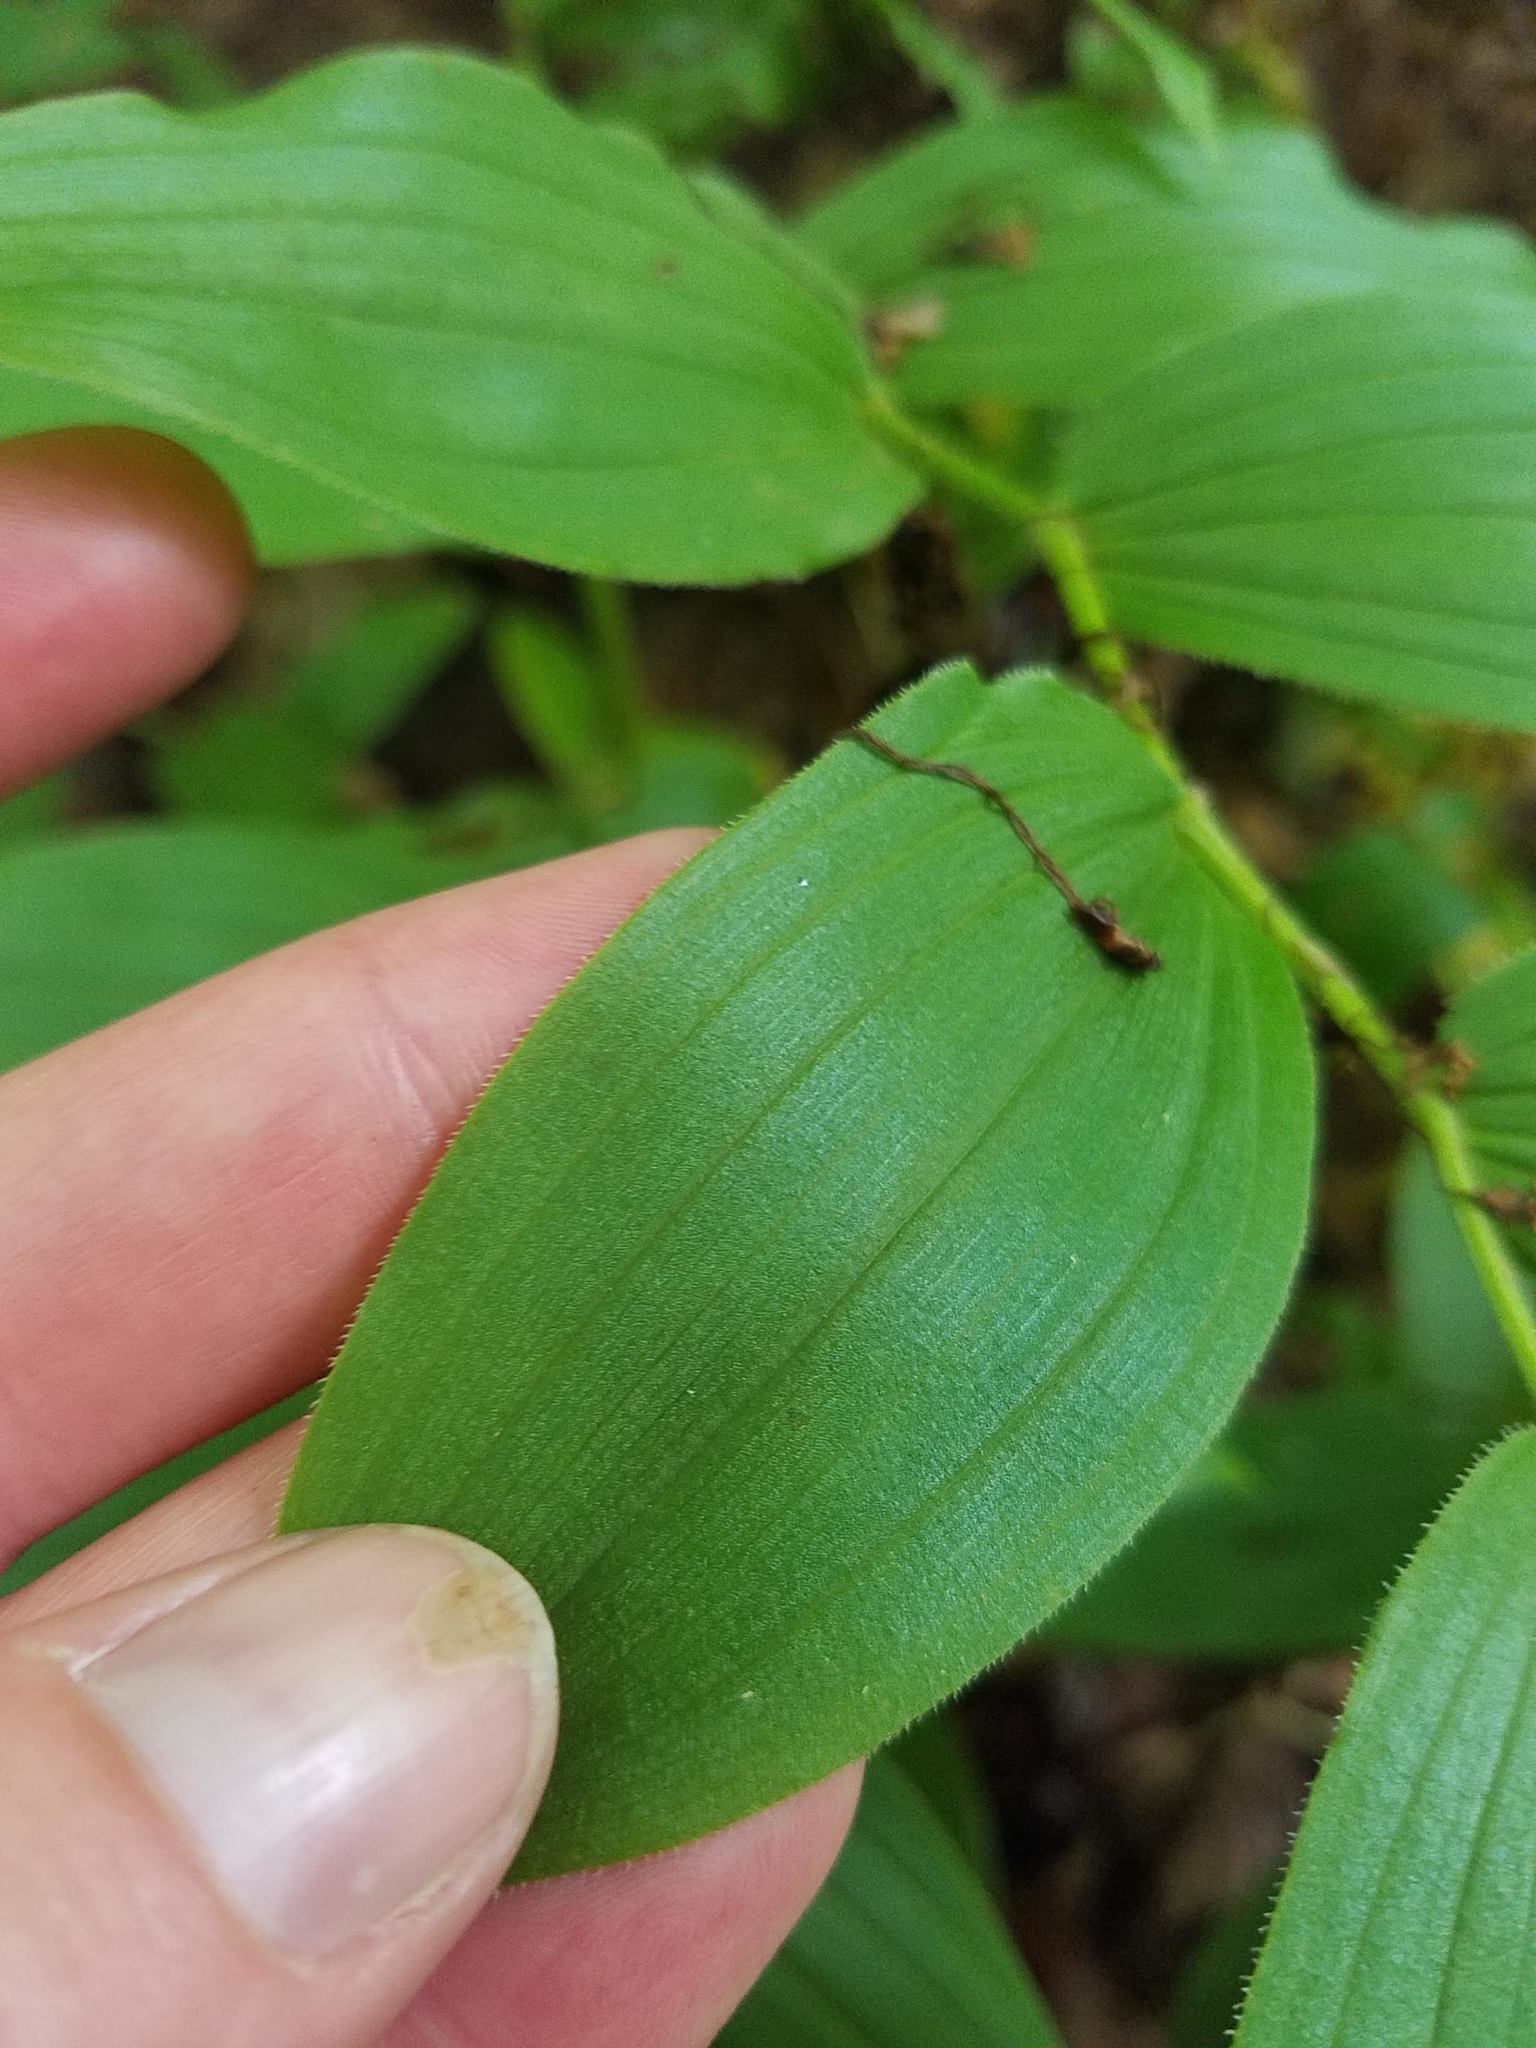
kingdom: Plantae
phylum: Tracheophyta
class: Liliopsida
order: Liliales
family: Liliaceae
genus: Streptopus
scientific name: Streptopus lanceolatus
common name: Rose mandarin
